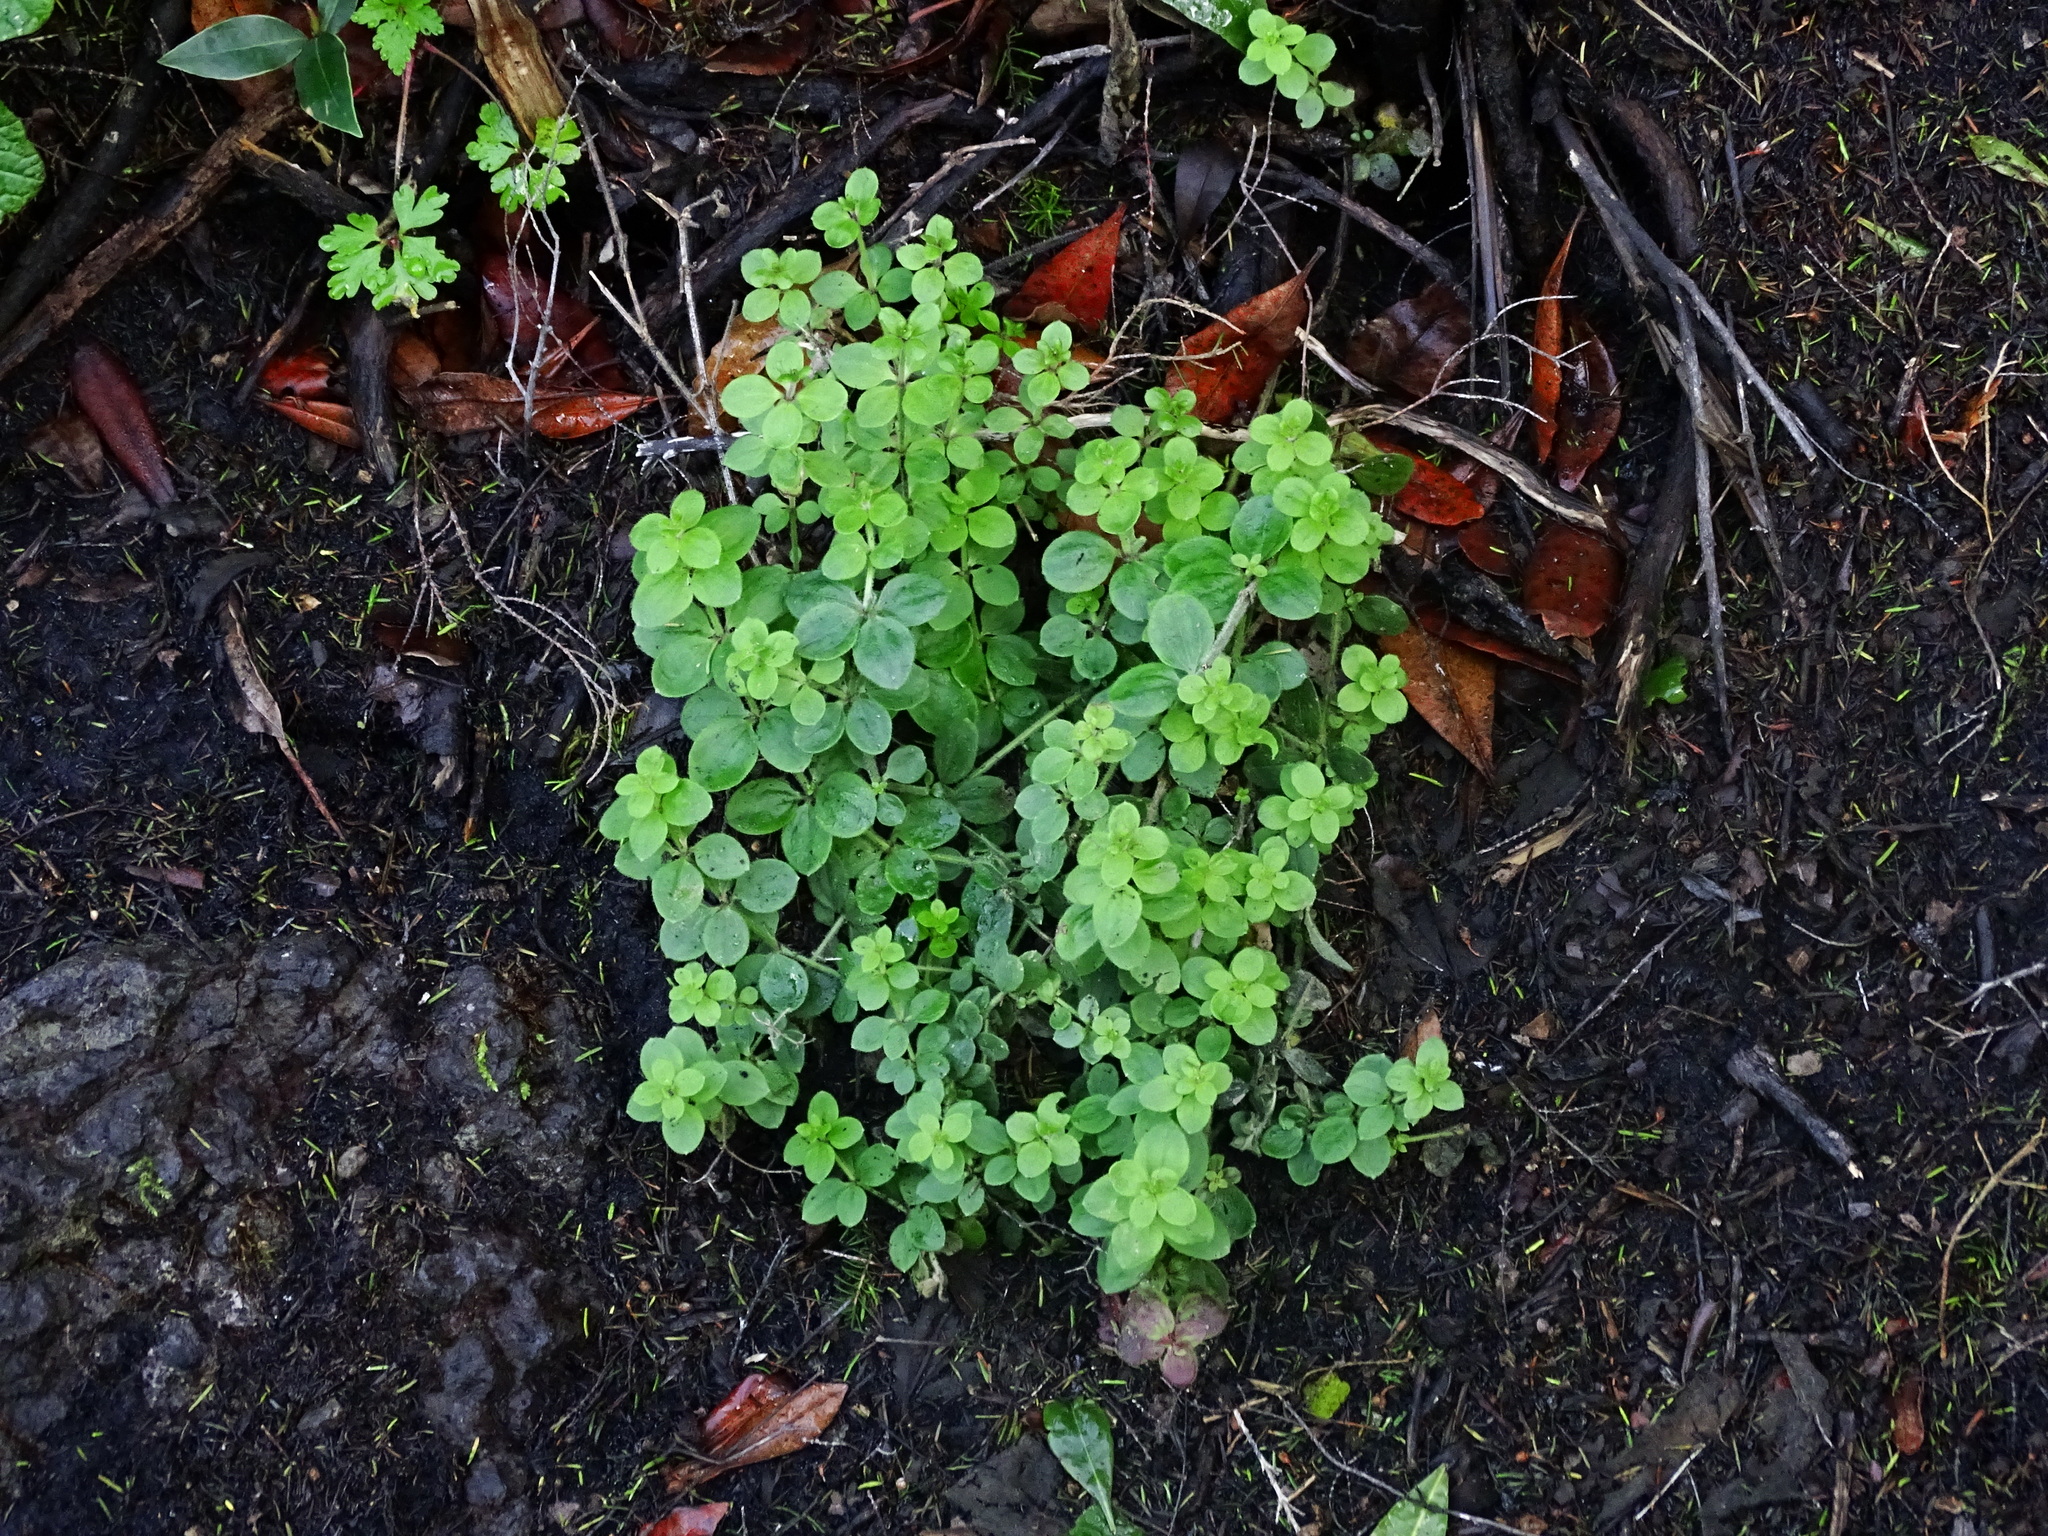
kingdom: Plantae
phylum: Tracheophyta
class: Magnoliopsida
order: Gentianales
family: Rubiaceae
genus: Galium
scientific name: Galium scabrum
